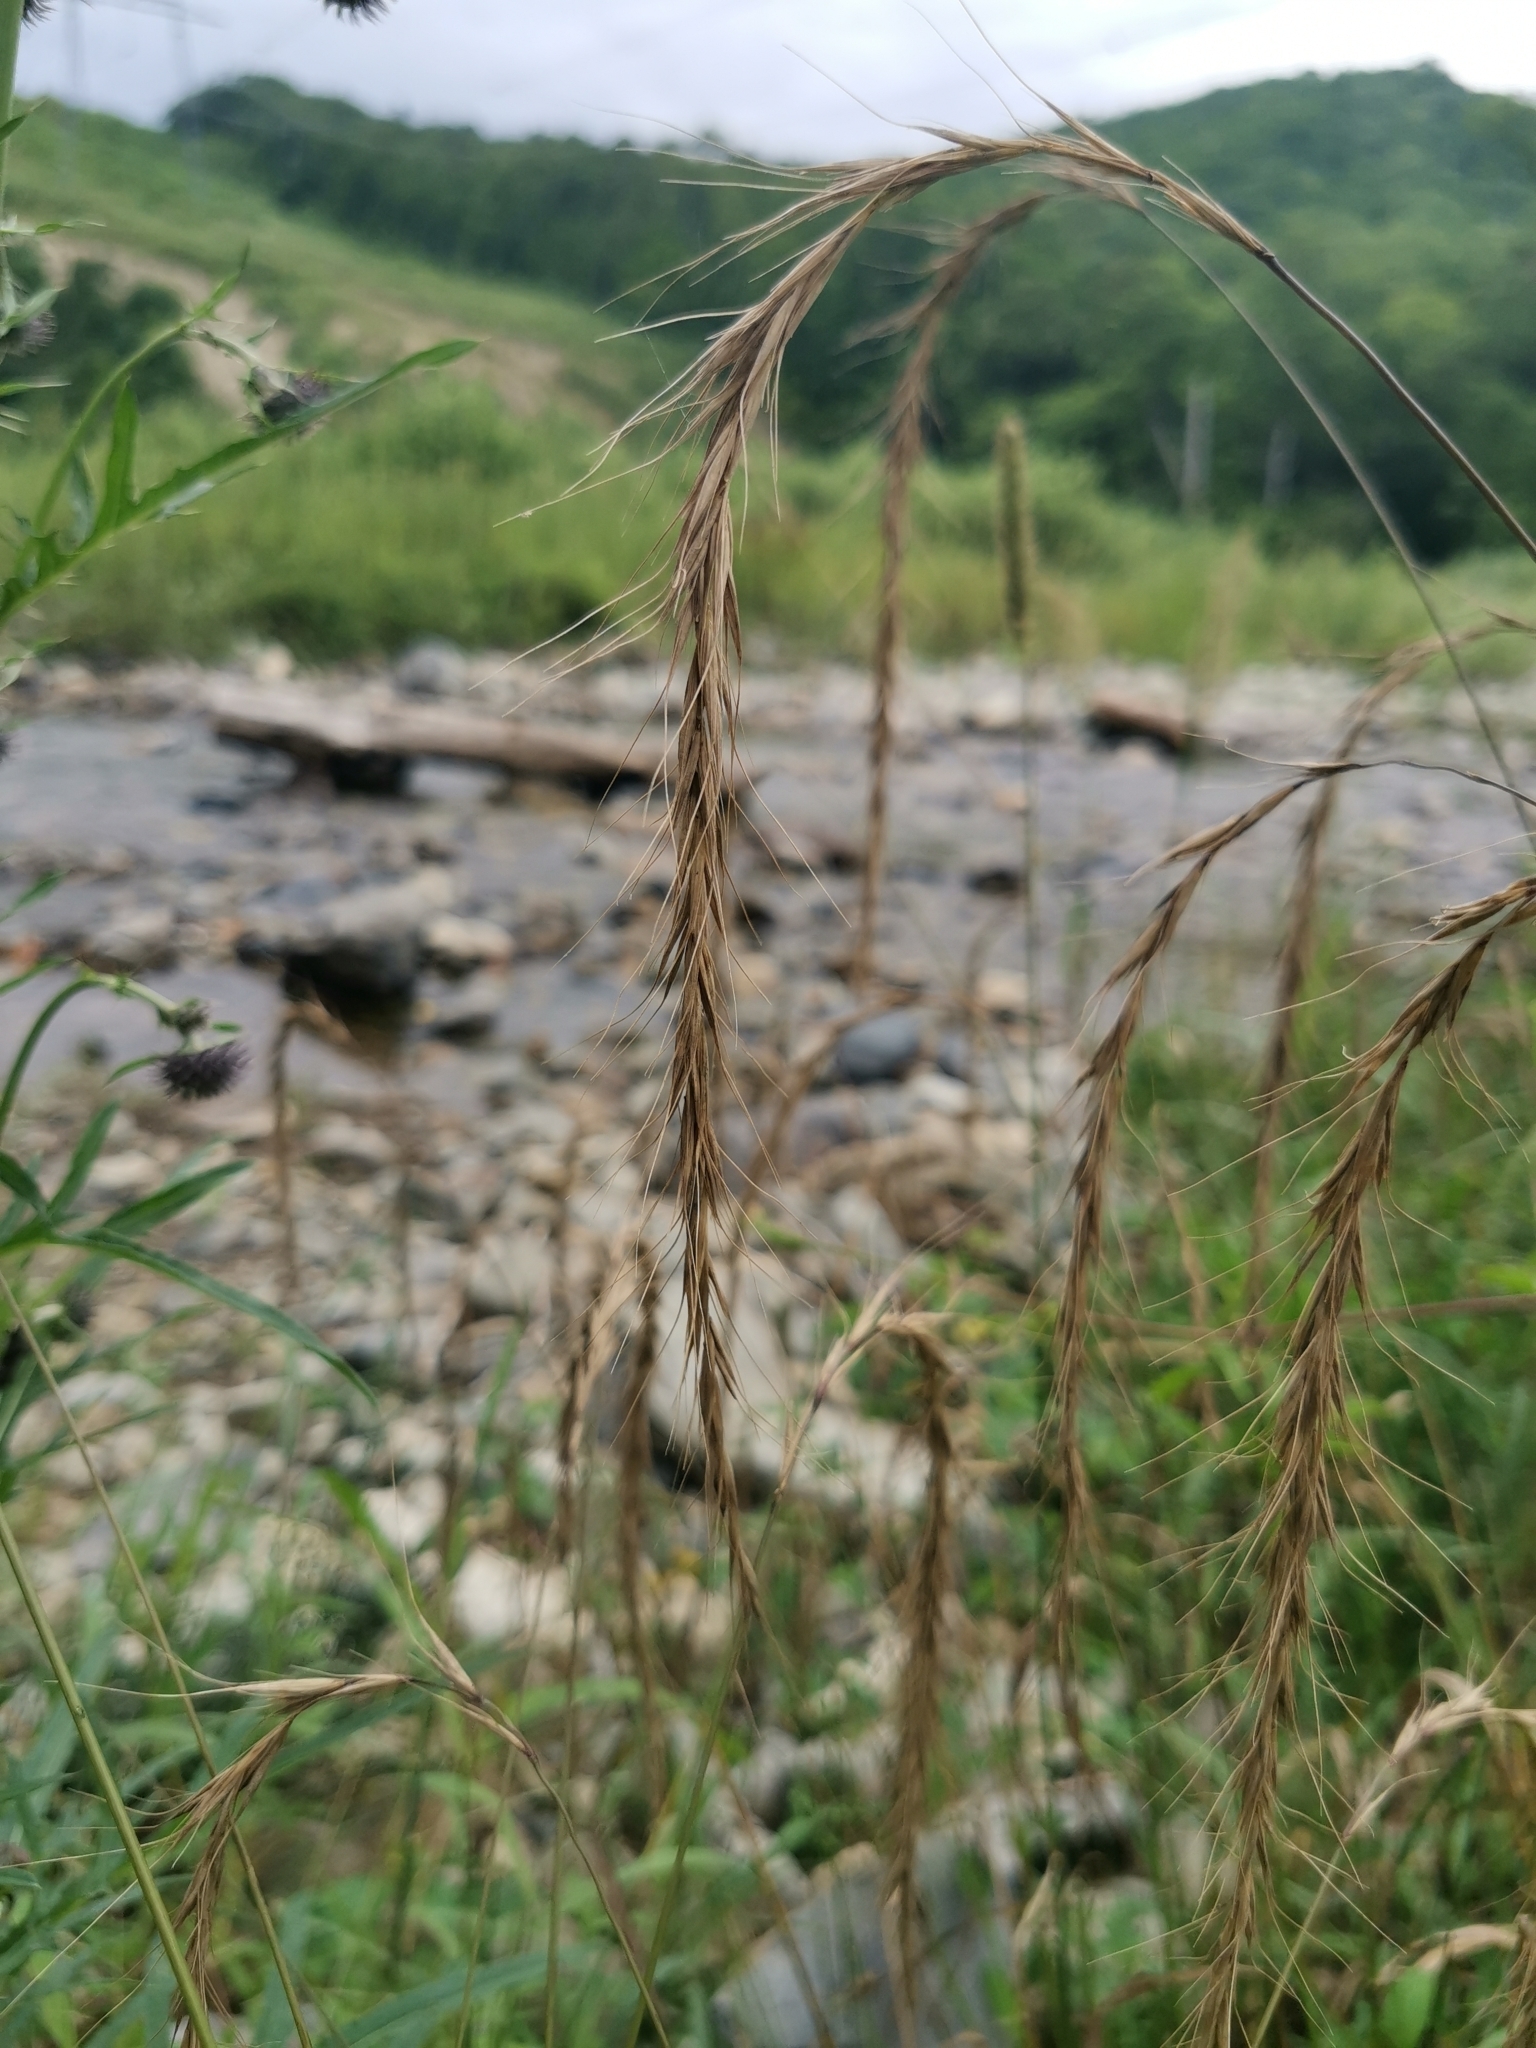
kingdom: Plantae
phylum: Tracheophyta
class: Liliopsida
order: Poales
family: Poaceae
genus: Elymus
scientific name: Elymus sibiricus
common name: Siberian wildrye
